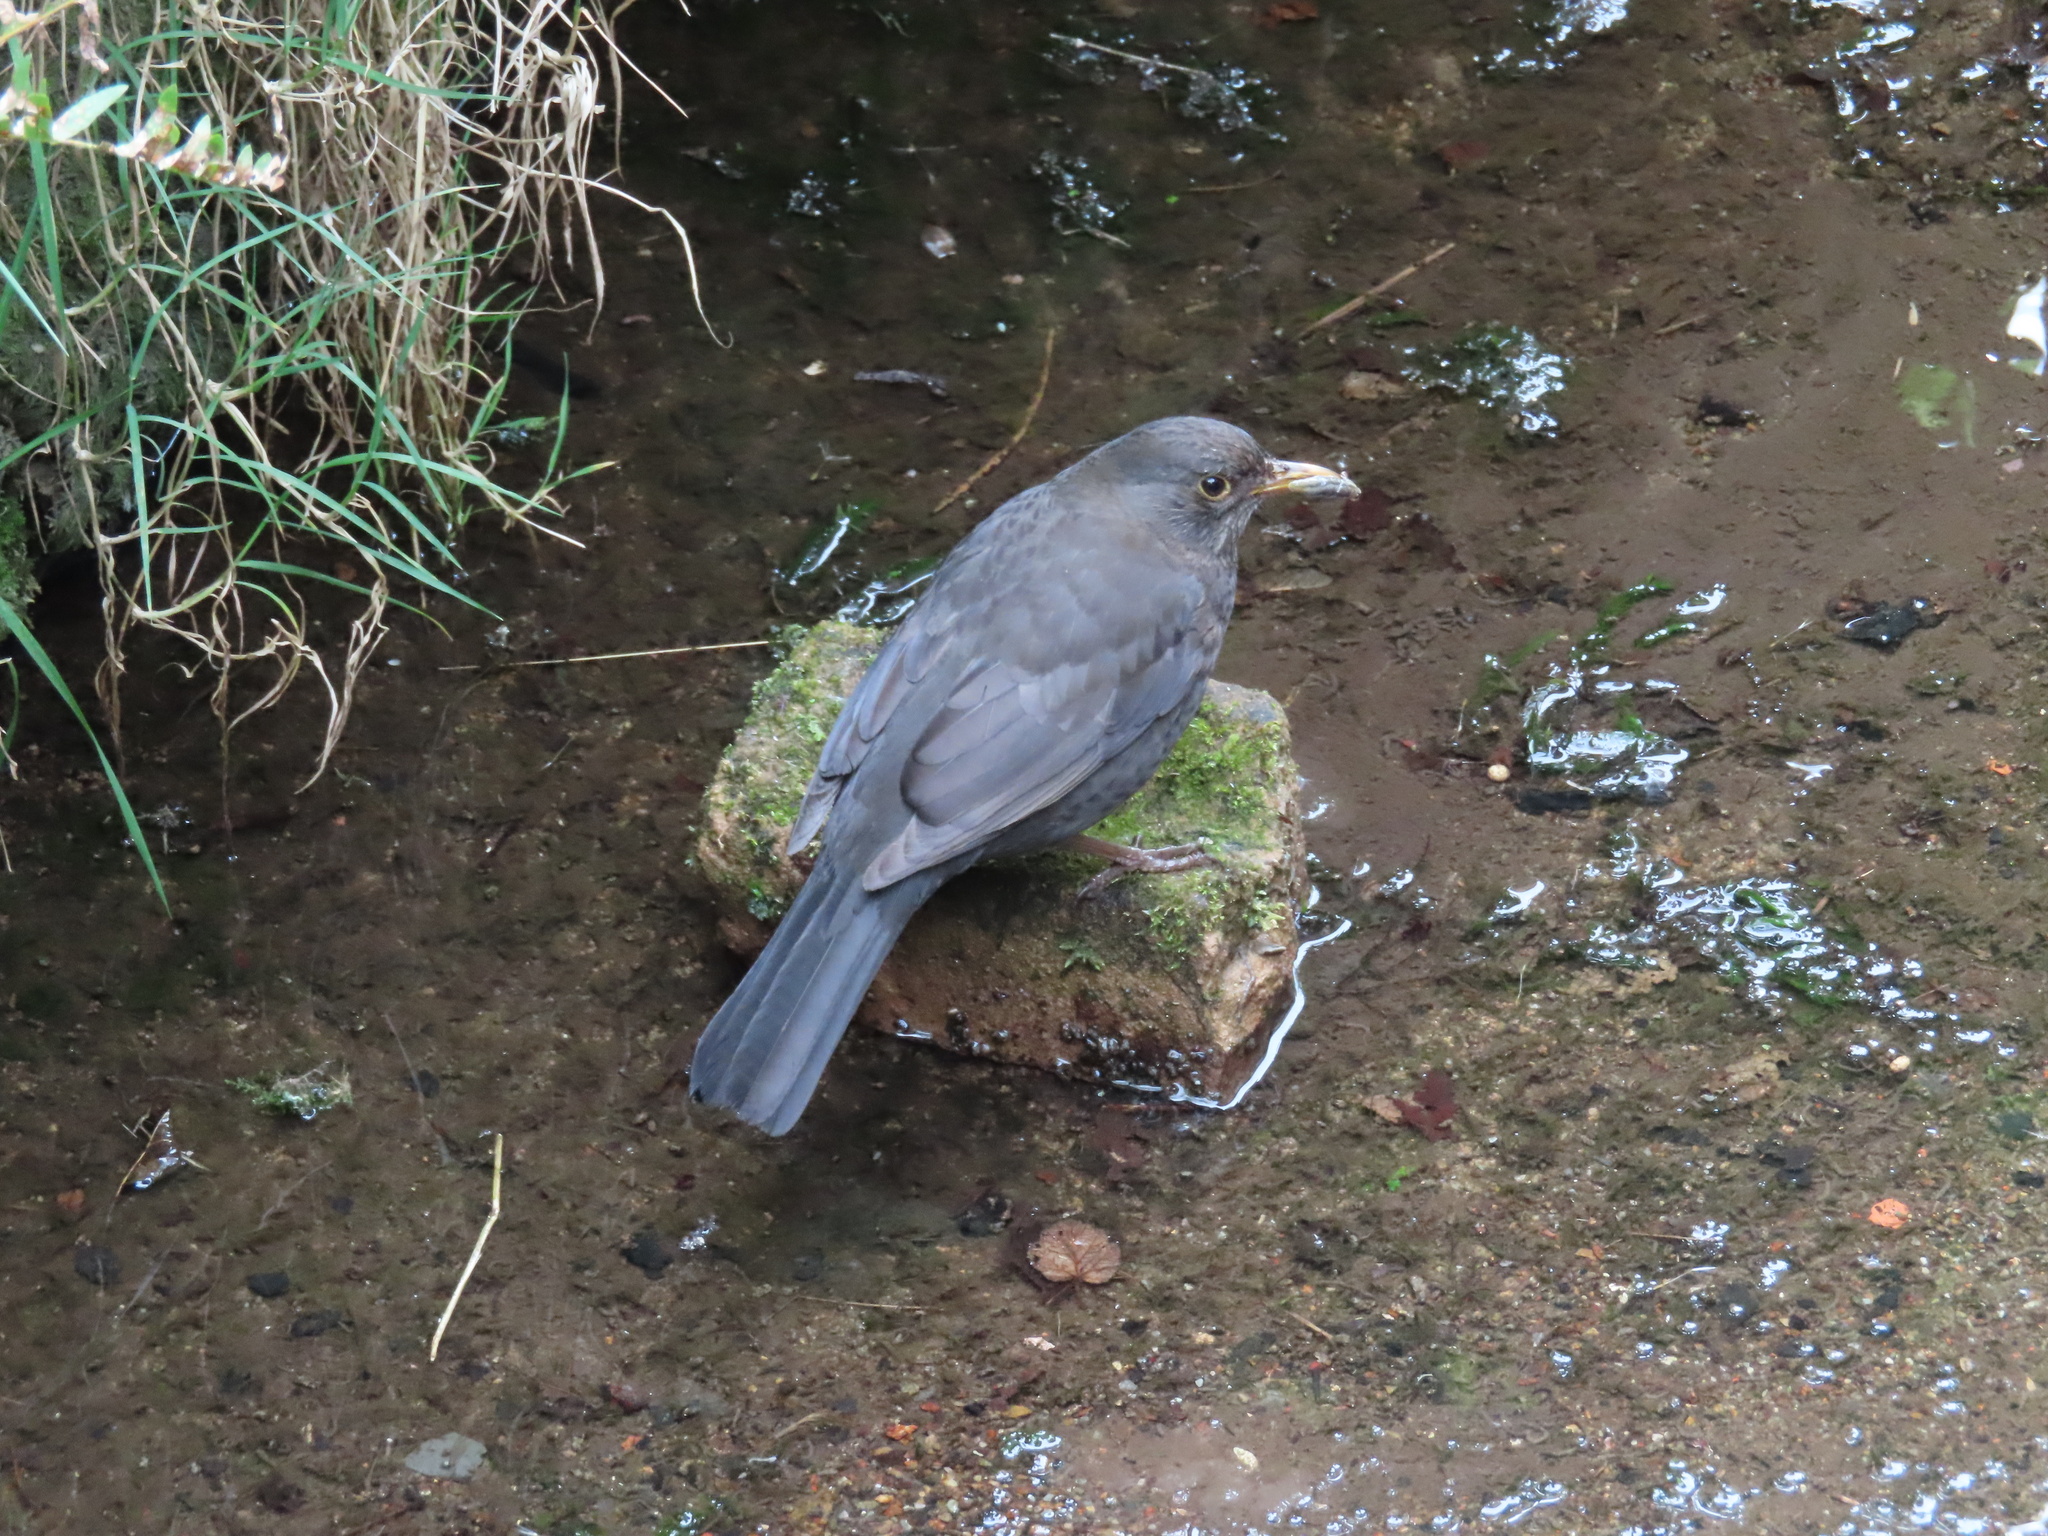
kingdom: Animalia
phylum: Chordata
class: Aves
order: Passeriformes
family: Turdidae
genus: Turdus
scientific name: Turdus merula
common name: Common blackbird
